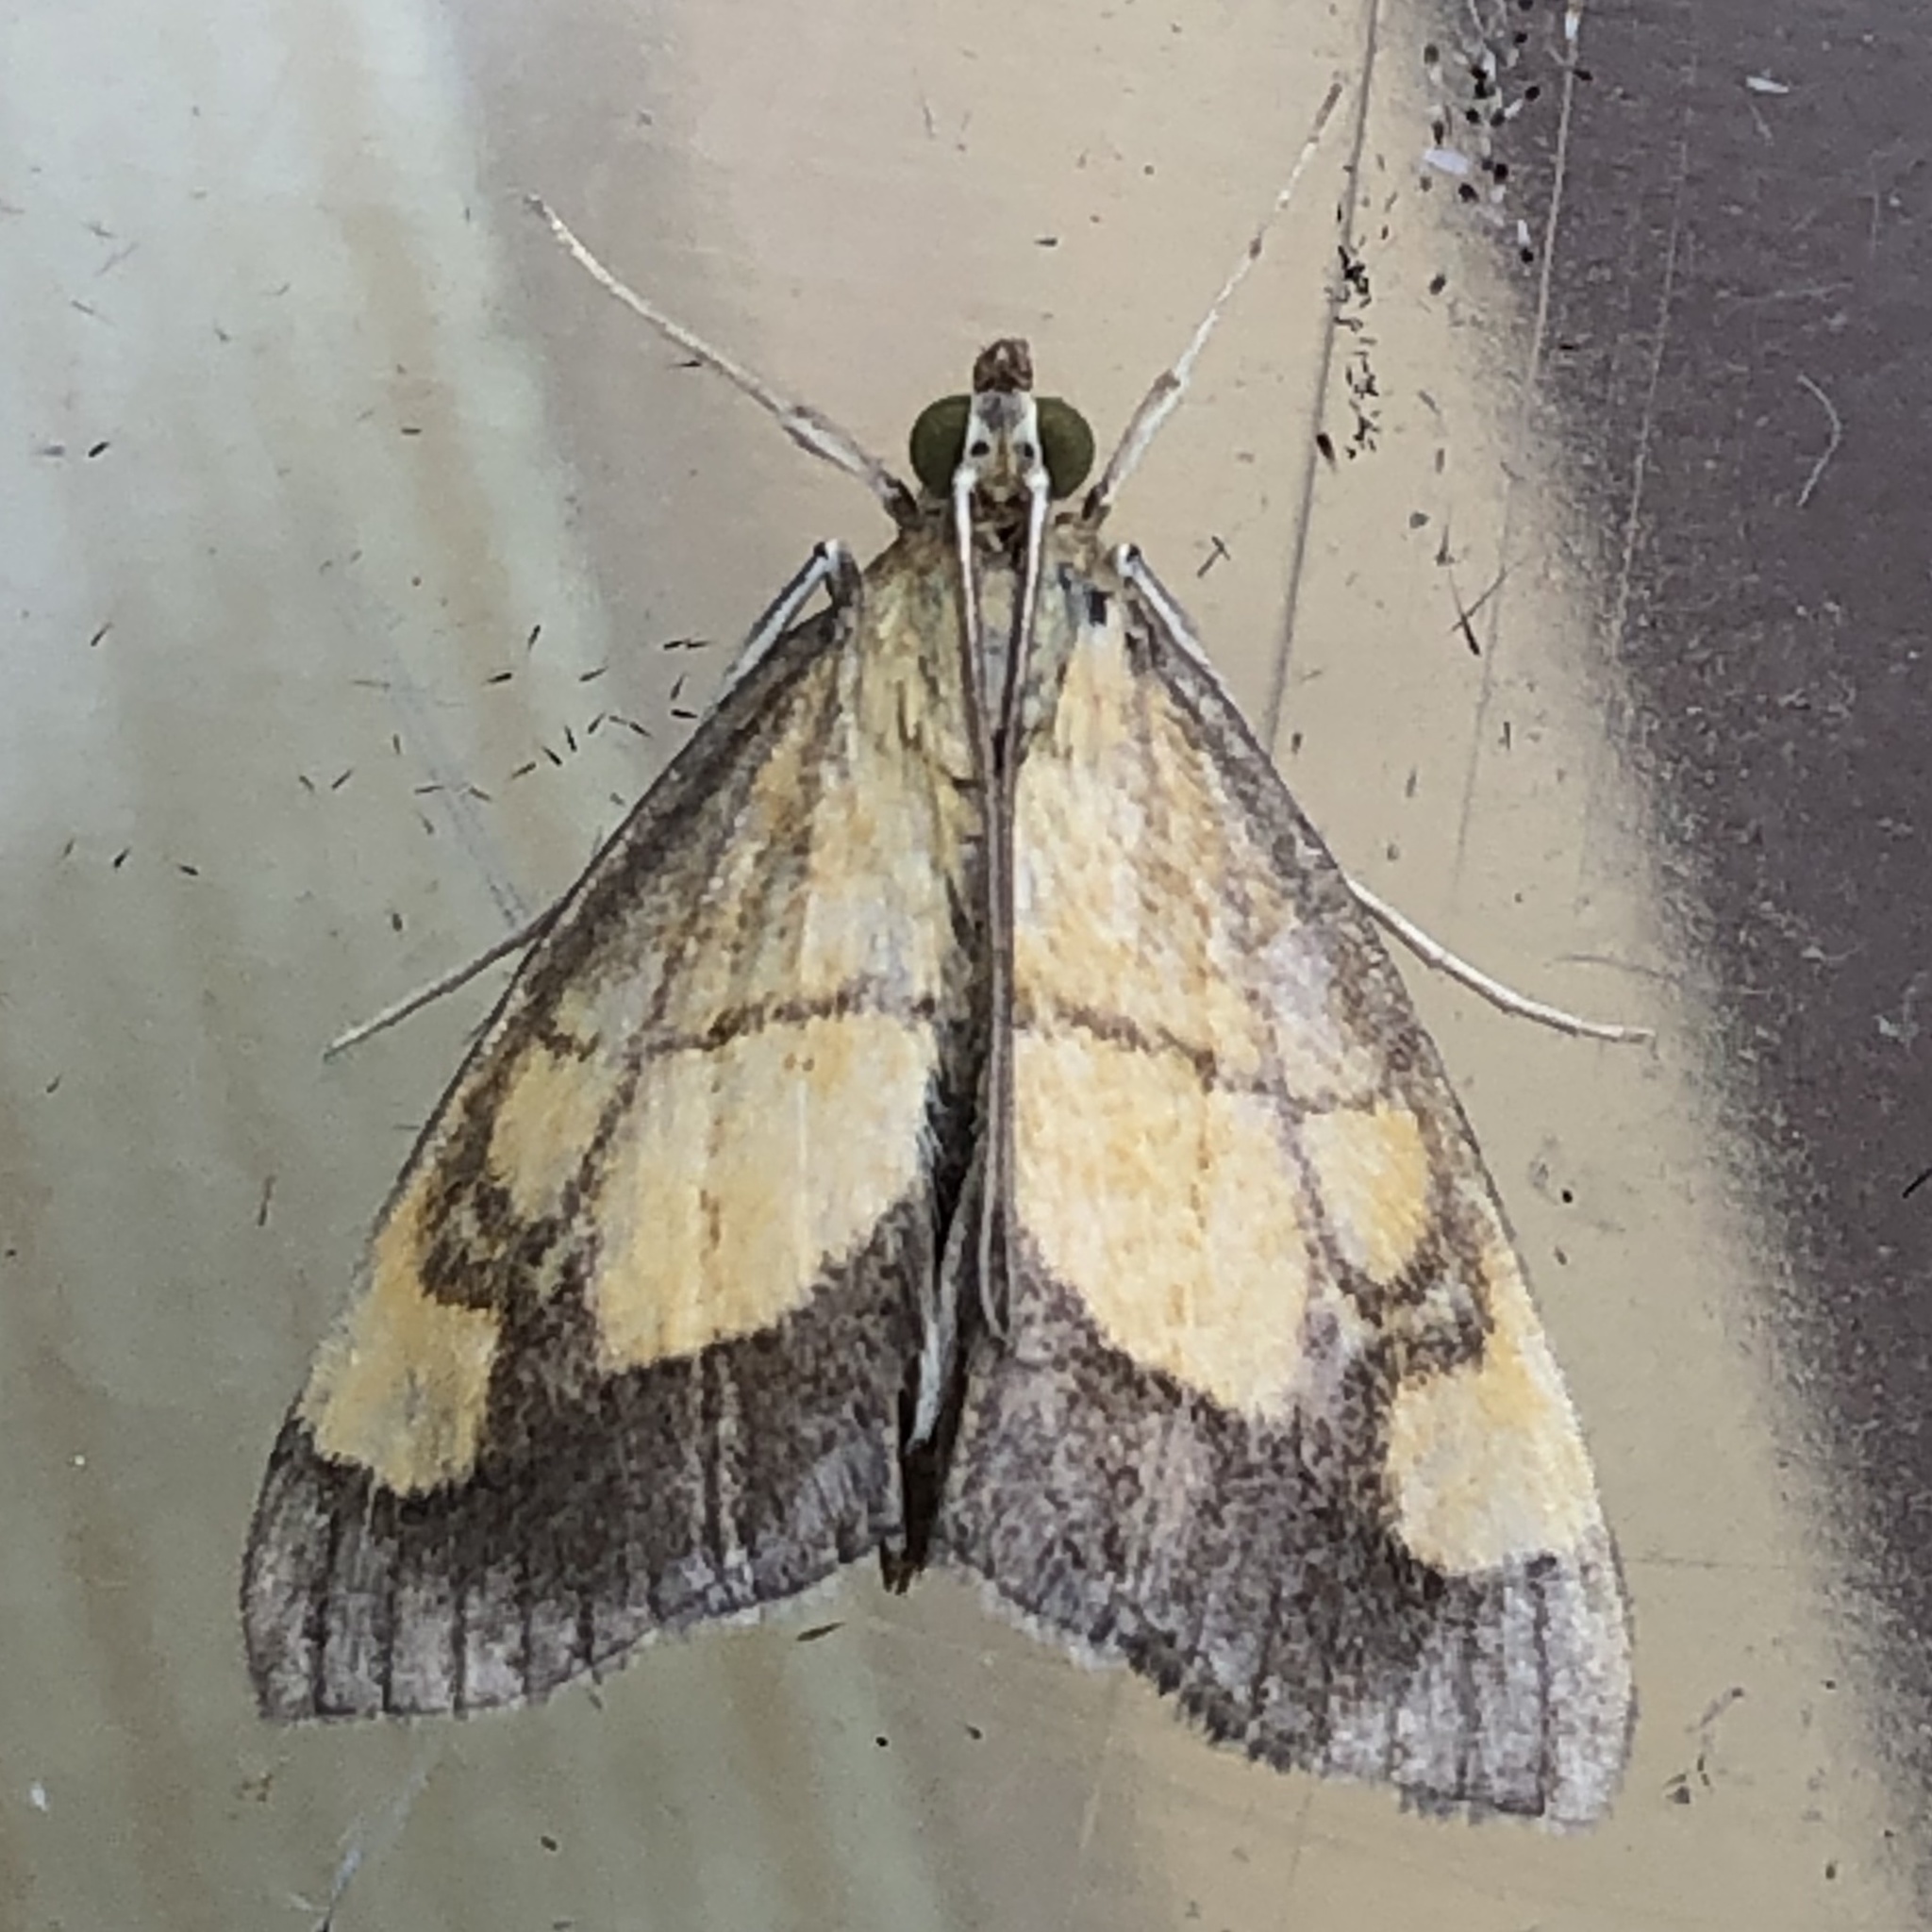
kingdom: Animalia
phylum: Arthropoda
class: Insecta
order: Lepidoptera
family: Crambidae
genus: Evergestis
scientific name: Evergestis limbata
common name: Dark bordered pearl
